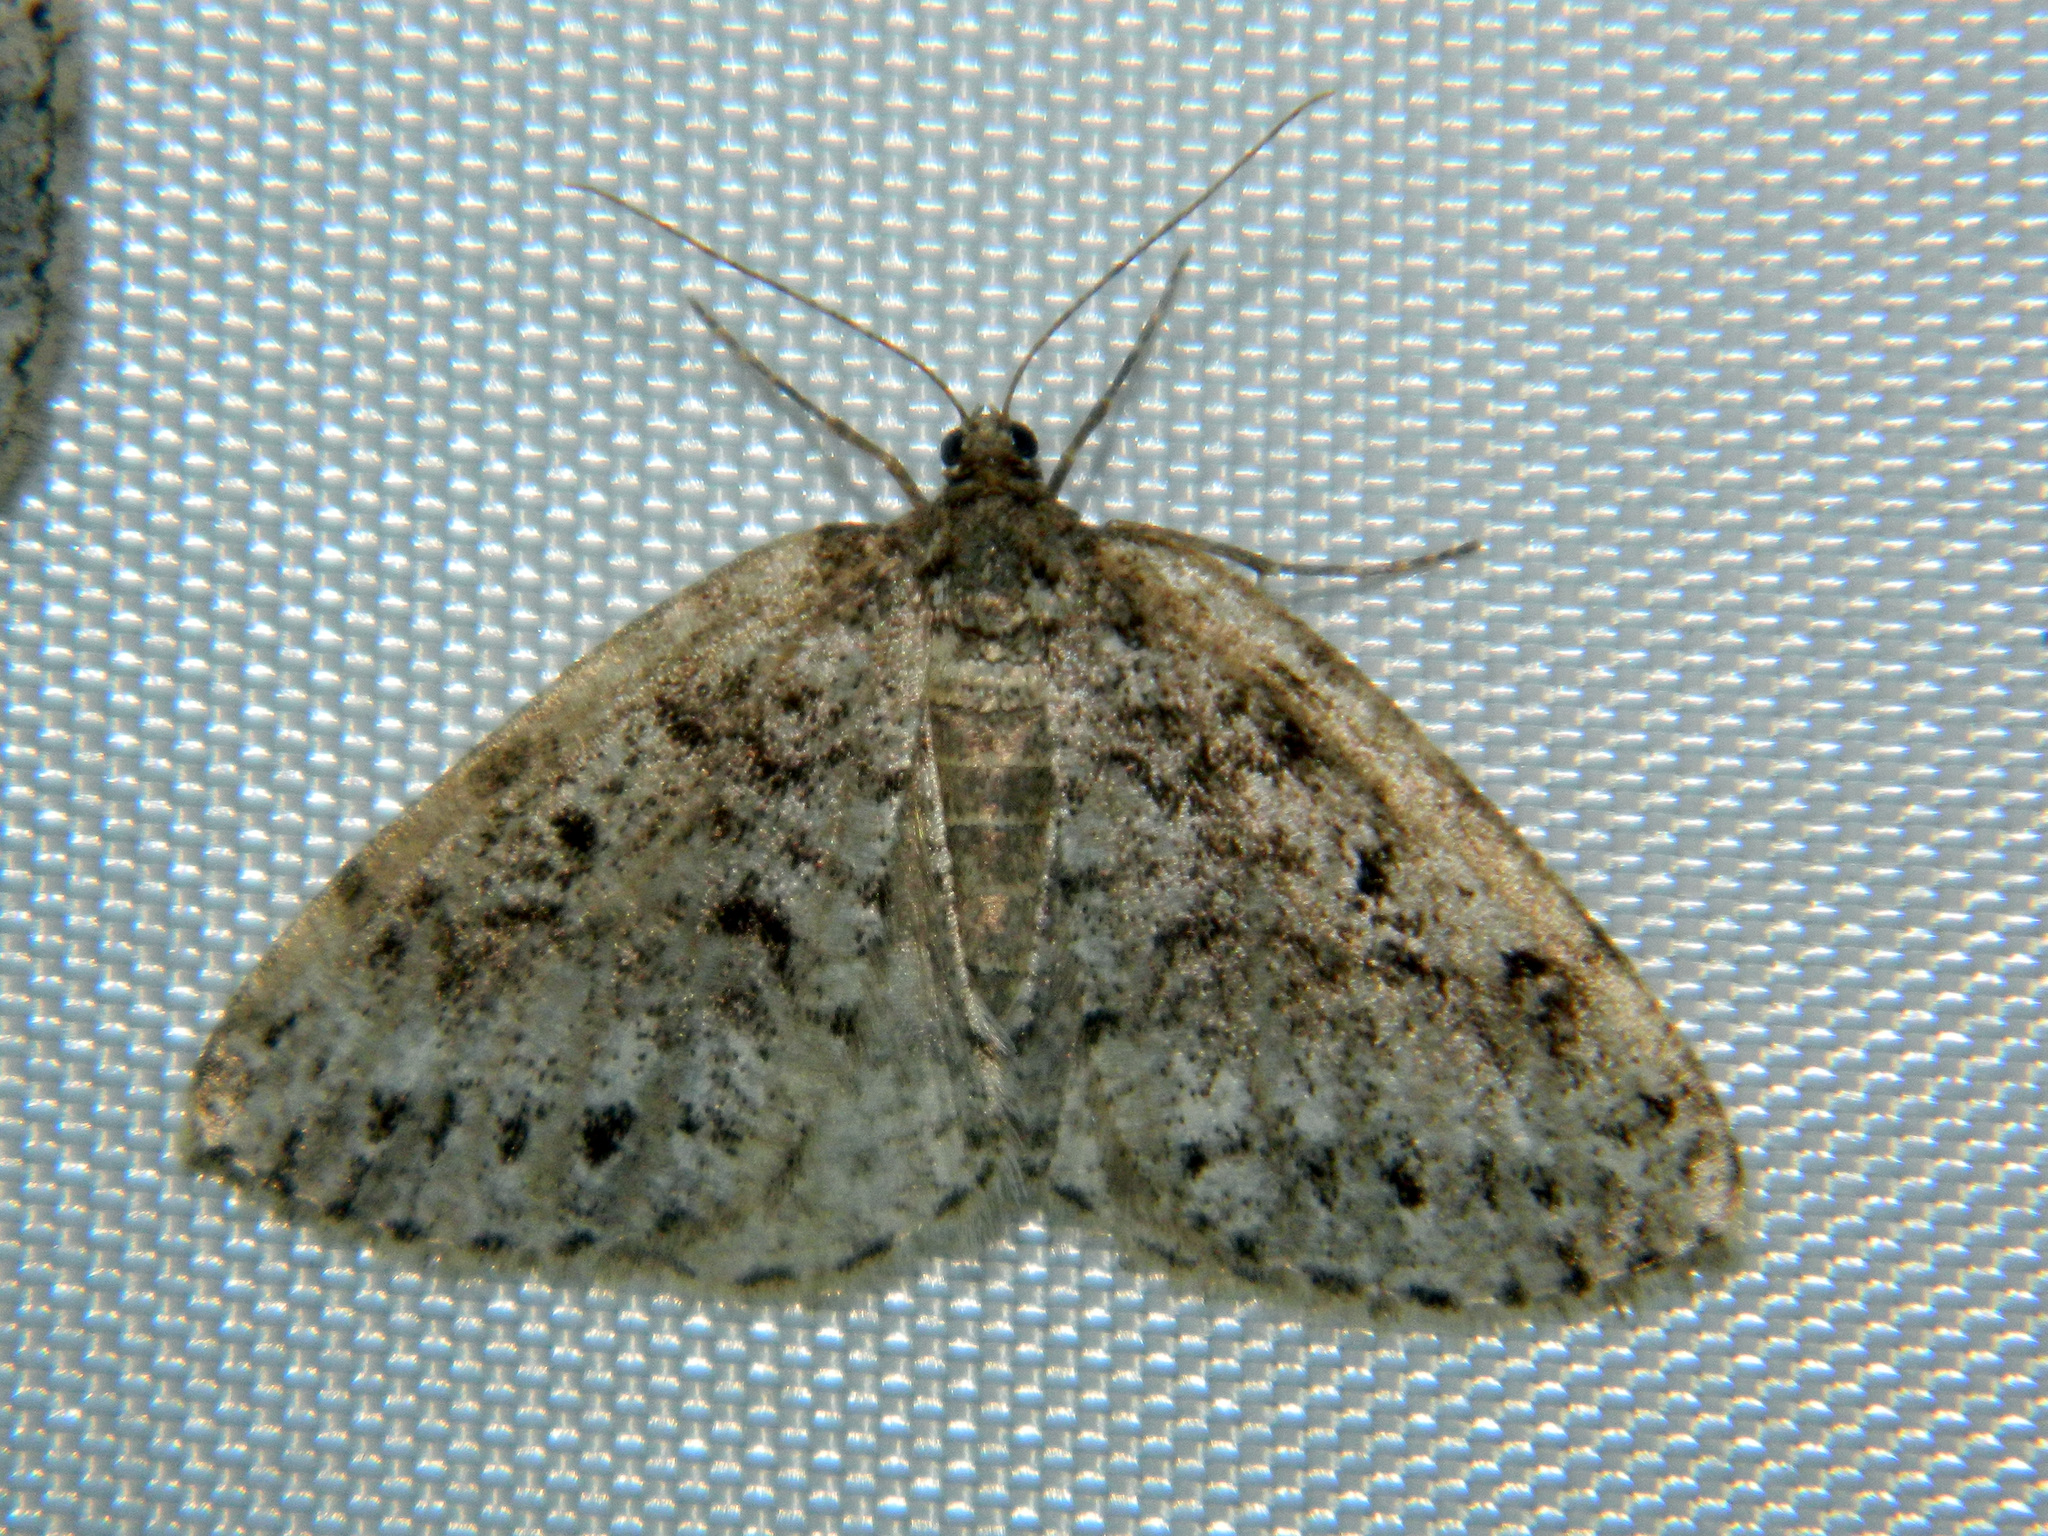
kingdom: Animalia
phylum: Arthropoda
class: Insecta
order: Lepidoptera
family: Geometridae
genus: Orthofidonia
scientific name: Orthofidonia exornata
